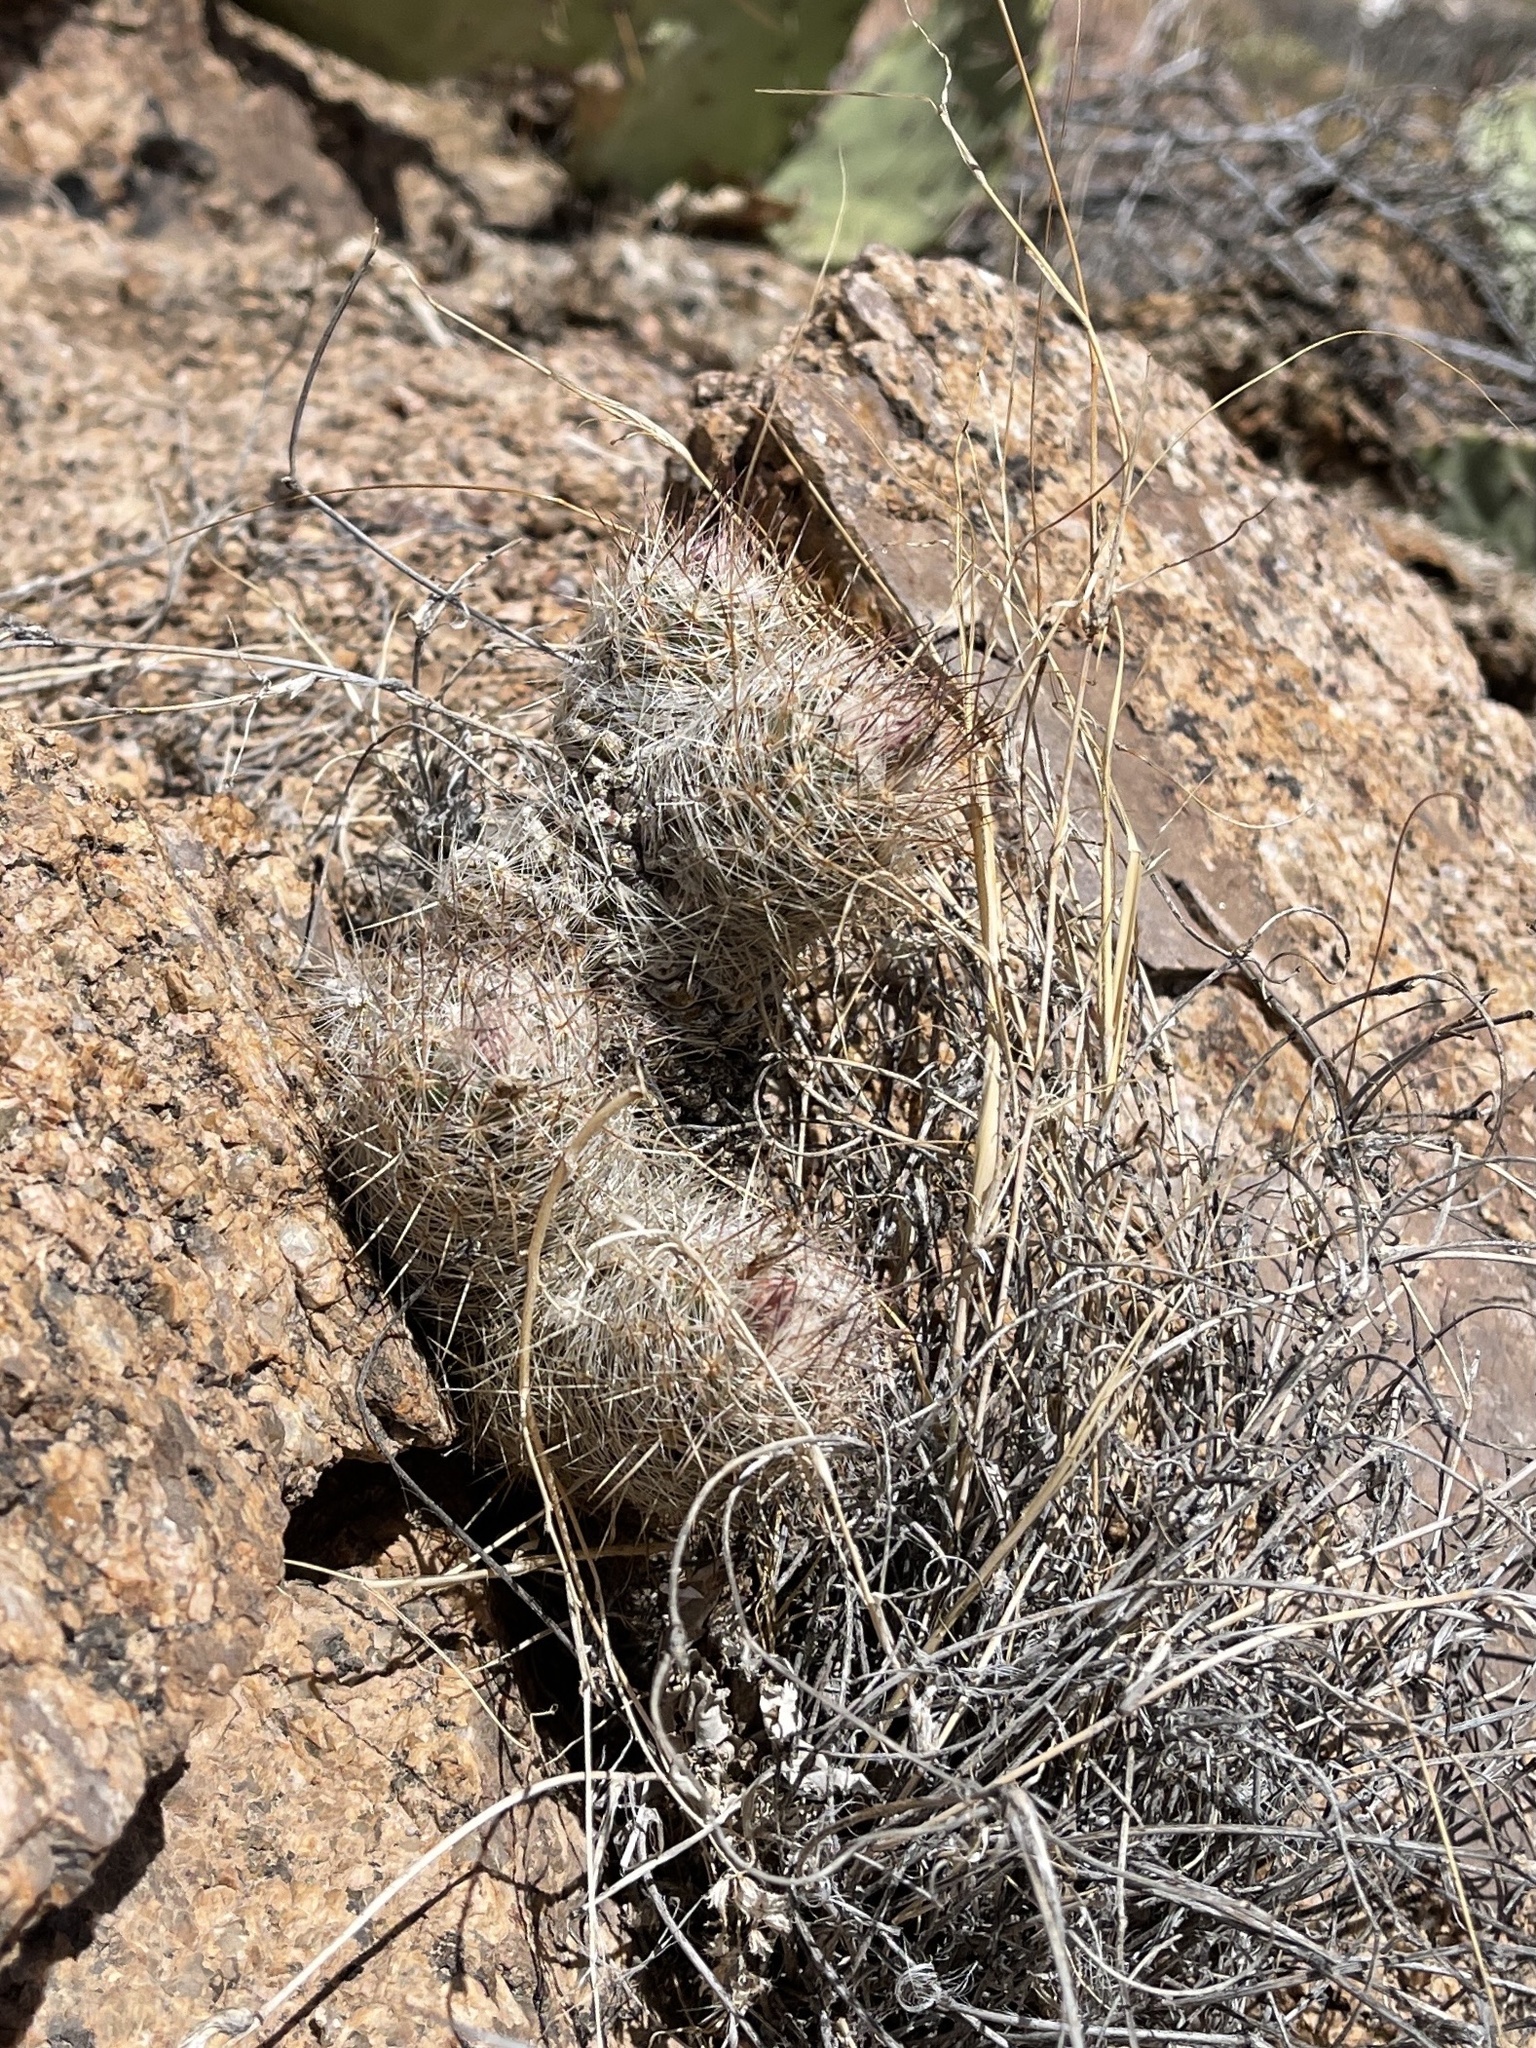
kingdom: Plantae
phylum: Tracheophyta
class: Magnoliopsida
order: Caryophyllales
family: Cactaceae
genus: Pelecyphora
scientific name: Pelecyphora tuberculosa
